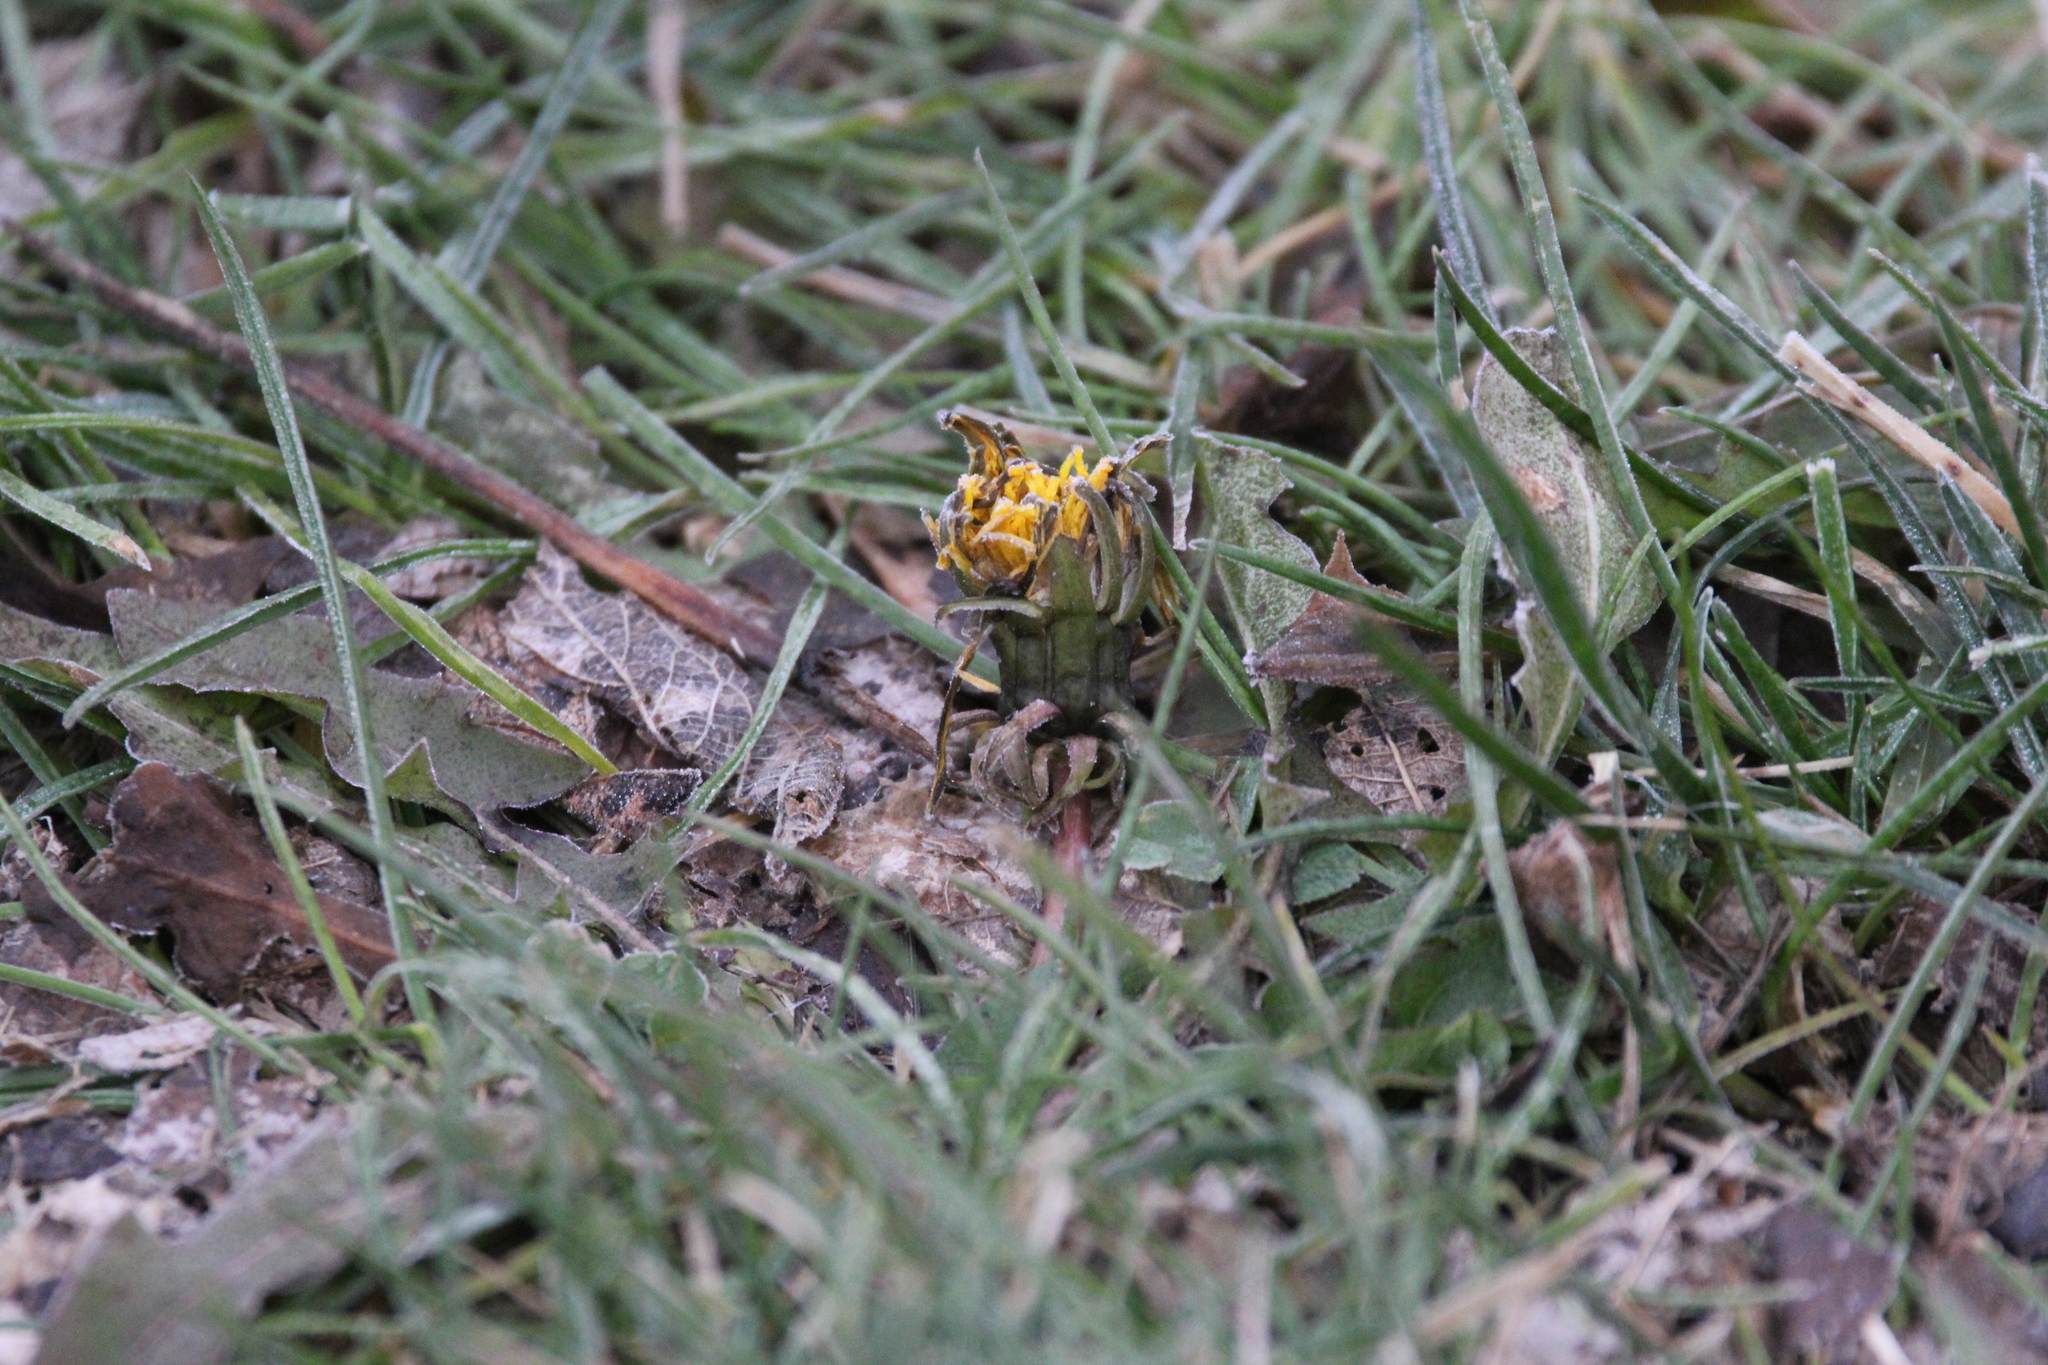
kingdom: Plantae
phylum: Tracheophyta
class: Magnoliopsida
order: Asterales
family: Asteraceae
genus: Taraxacum
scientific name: Taraxacum officinale
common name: Common dandelion
